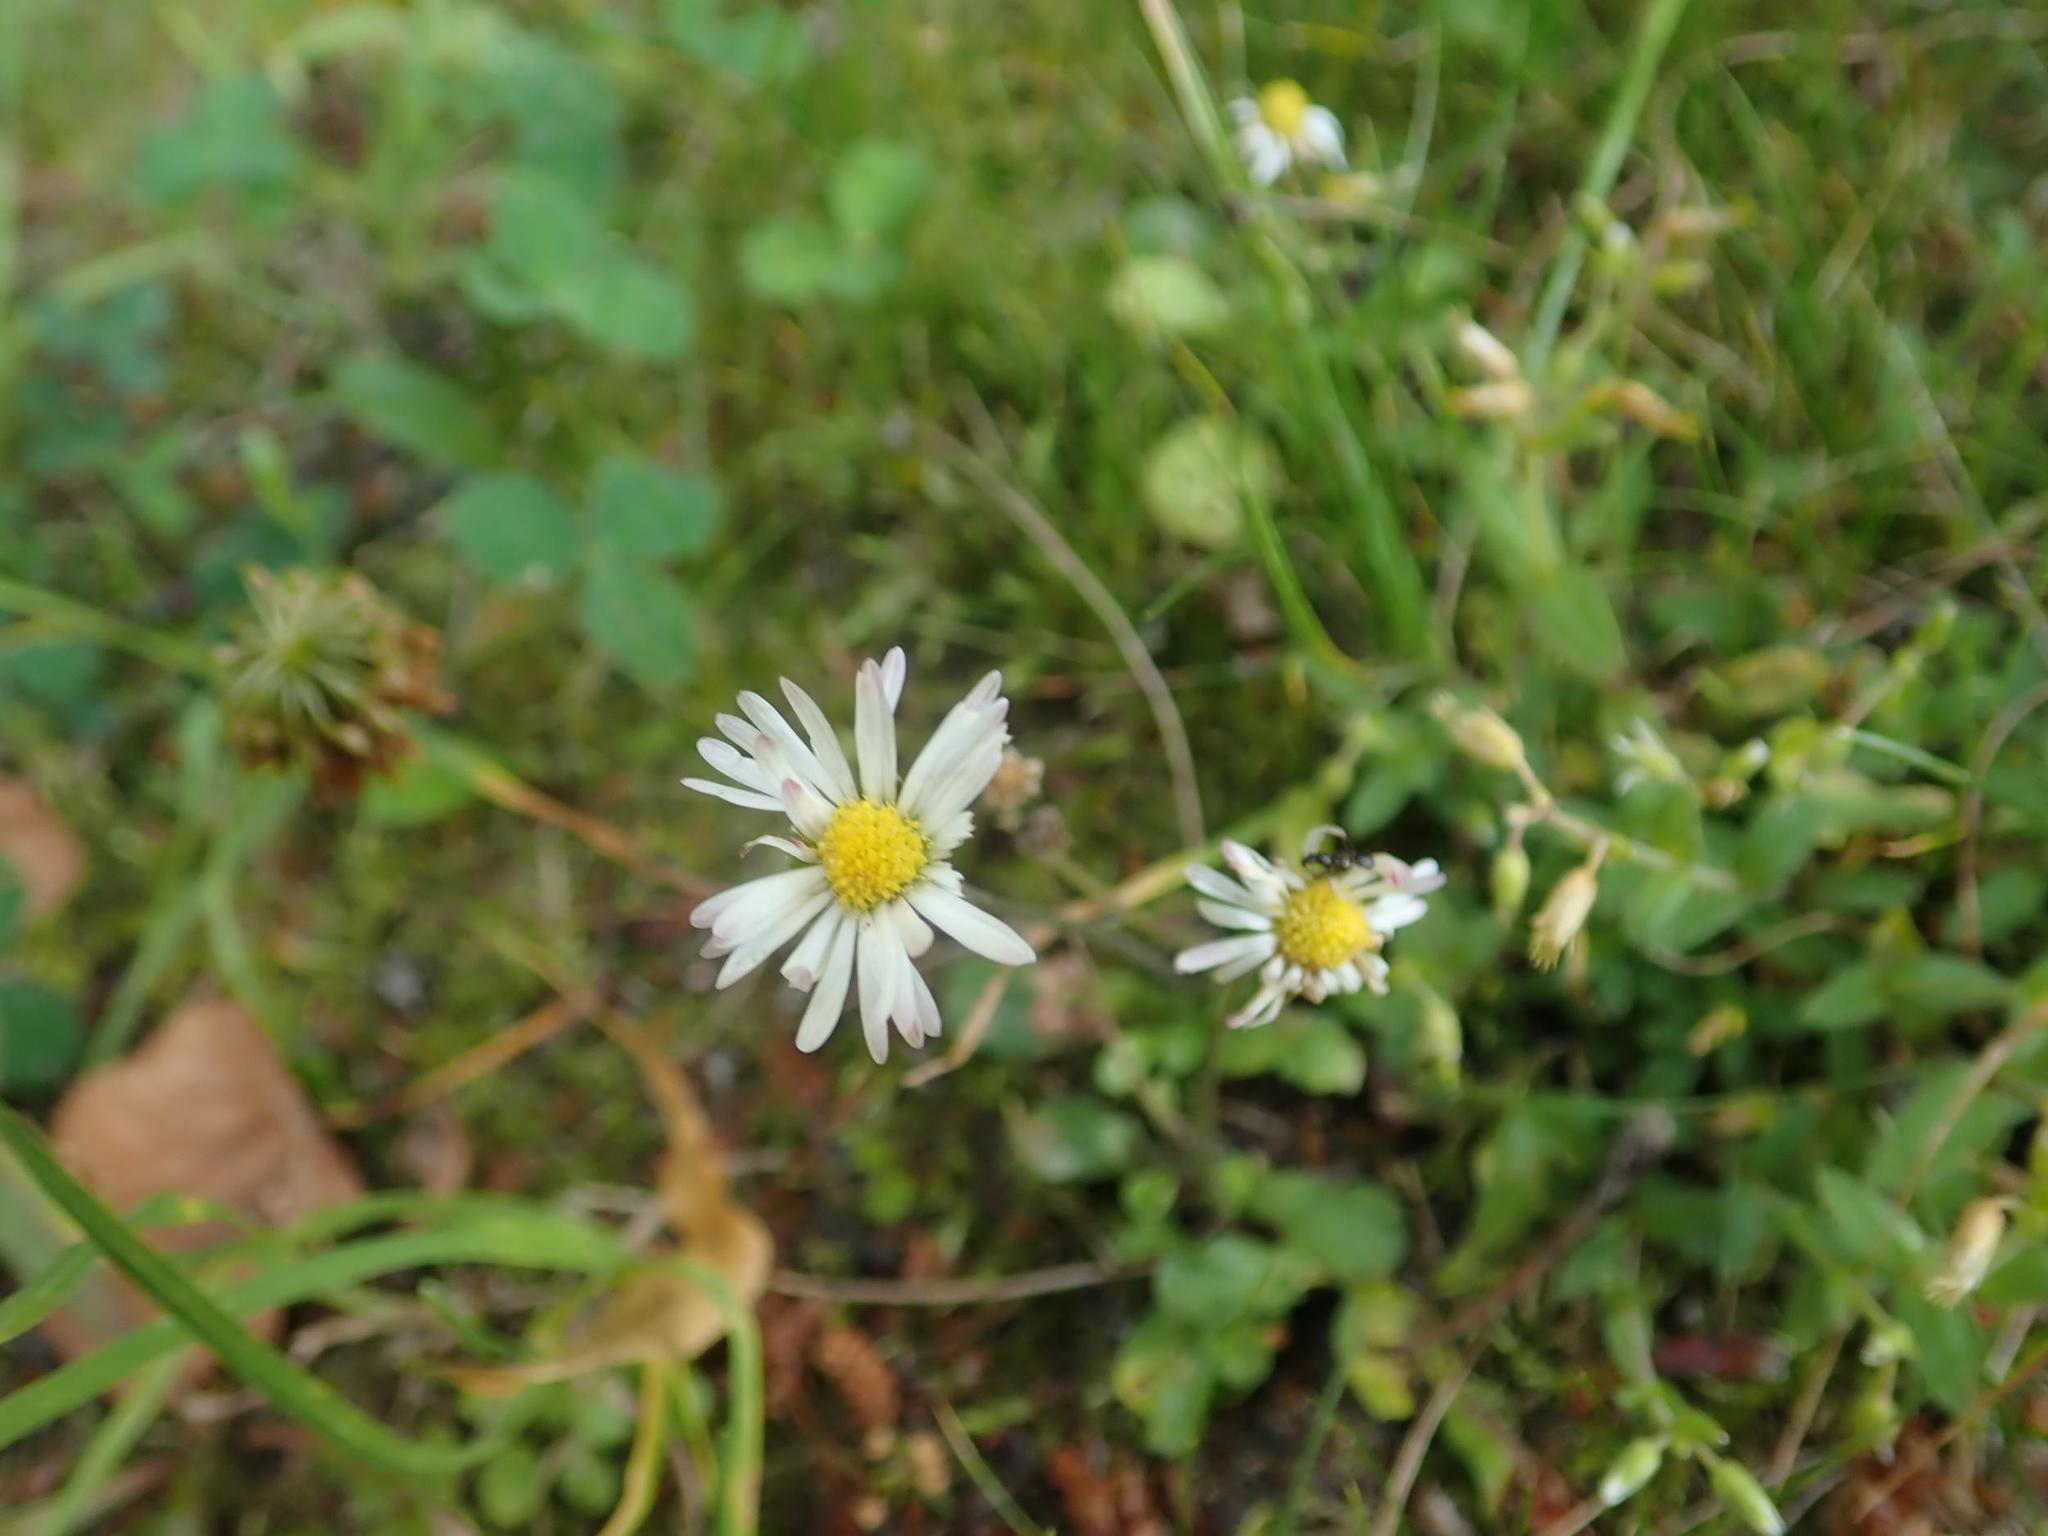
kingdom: Plantae
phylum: Tracheophyta
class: Magnoliopsida
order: Asterales
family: Asteraceae
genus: Bellis
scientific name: Bellis perennis
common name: Lawndaisy
